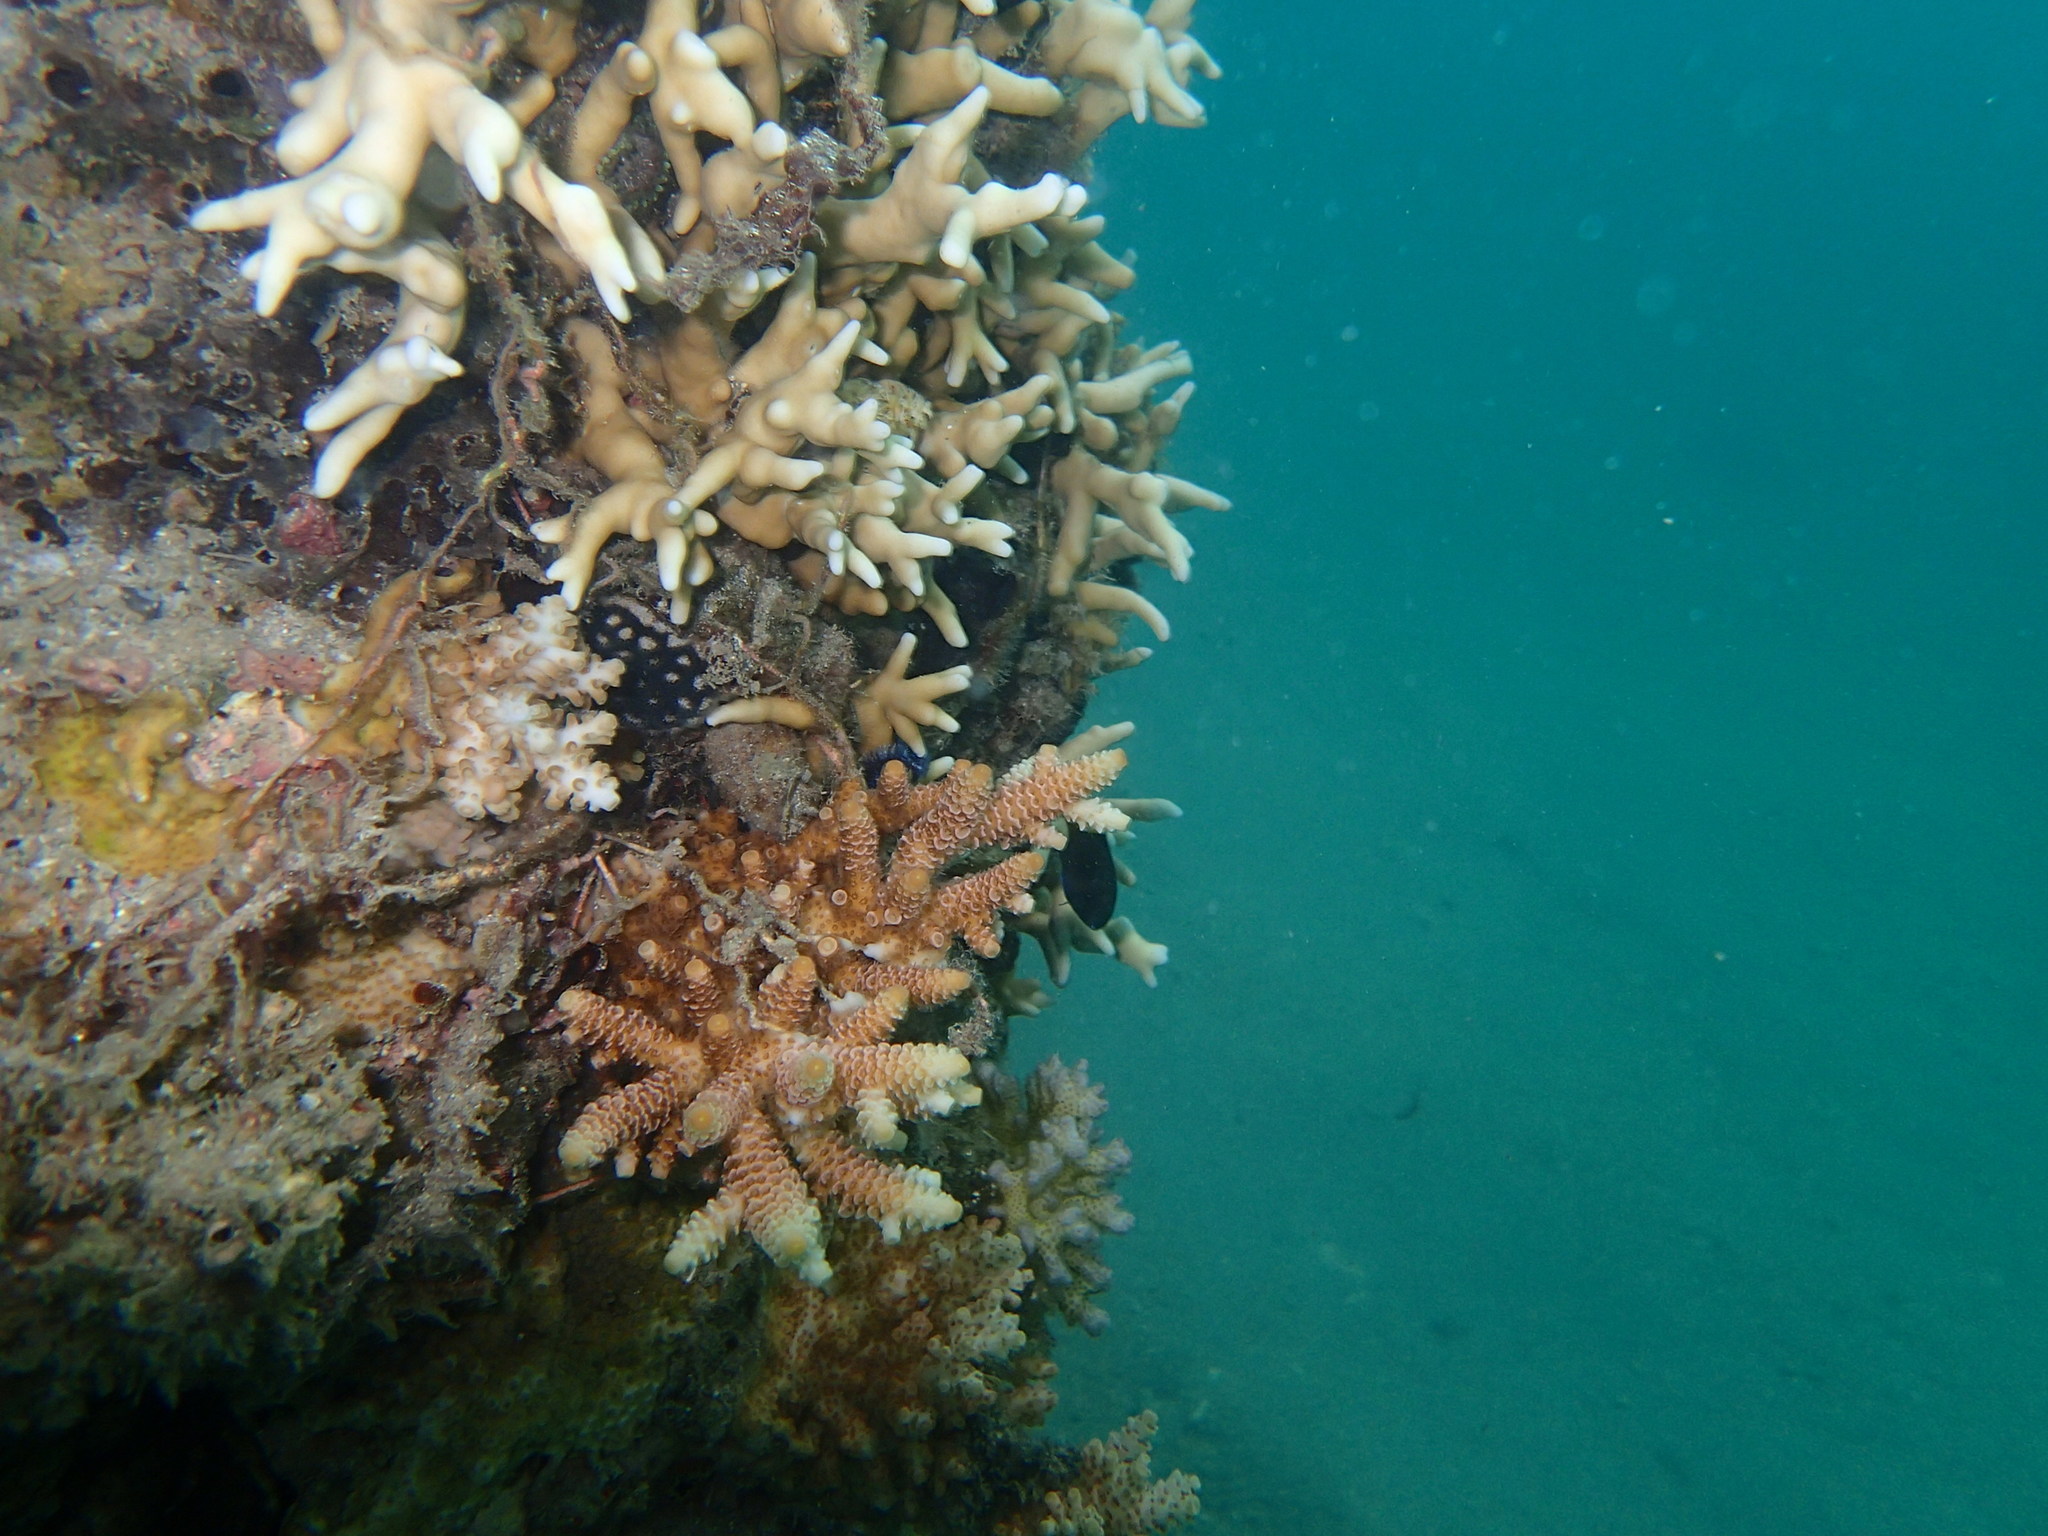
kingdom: Animalia
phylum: Cnidaria
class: Anthozoa
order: Scleractinia
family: Acroporidae
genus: Acropora
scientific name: Acropora millepora
